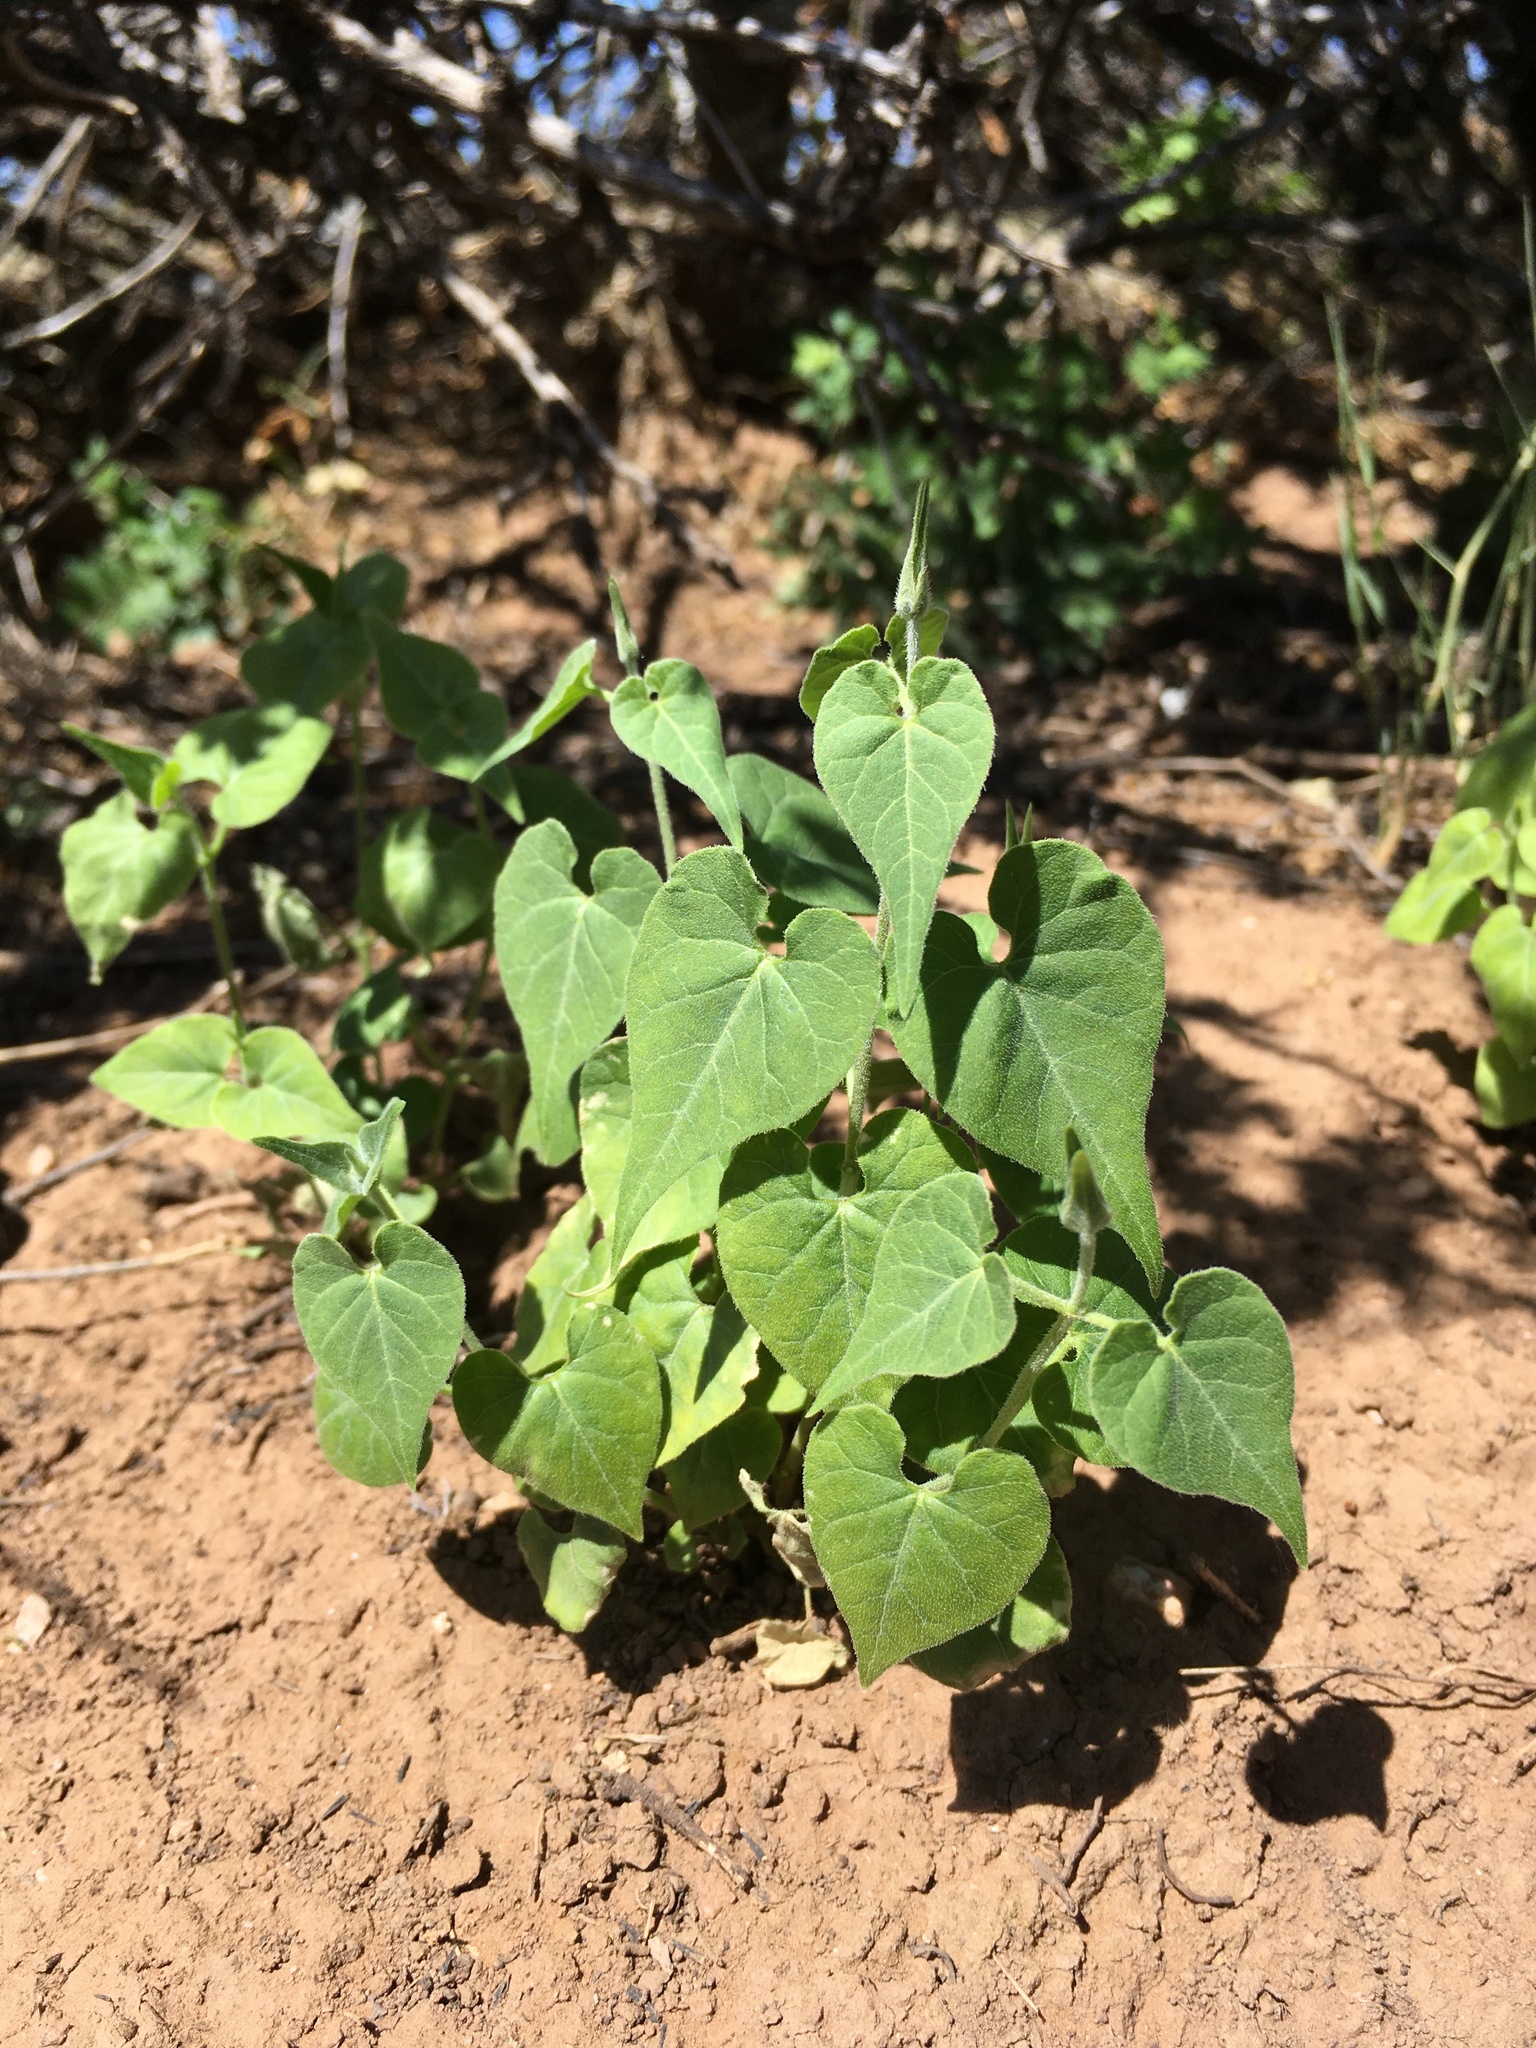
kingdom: Plantae
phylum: Tracheophyta
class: Magnoliopsida
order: Gentianales
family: Apocynaceae
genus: Chthamalia
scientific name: Chthamalia producta
